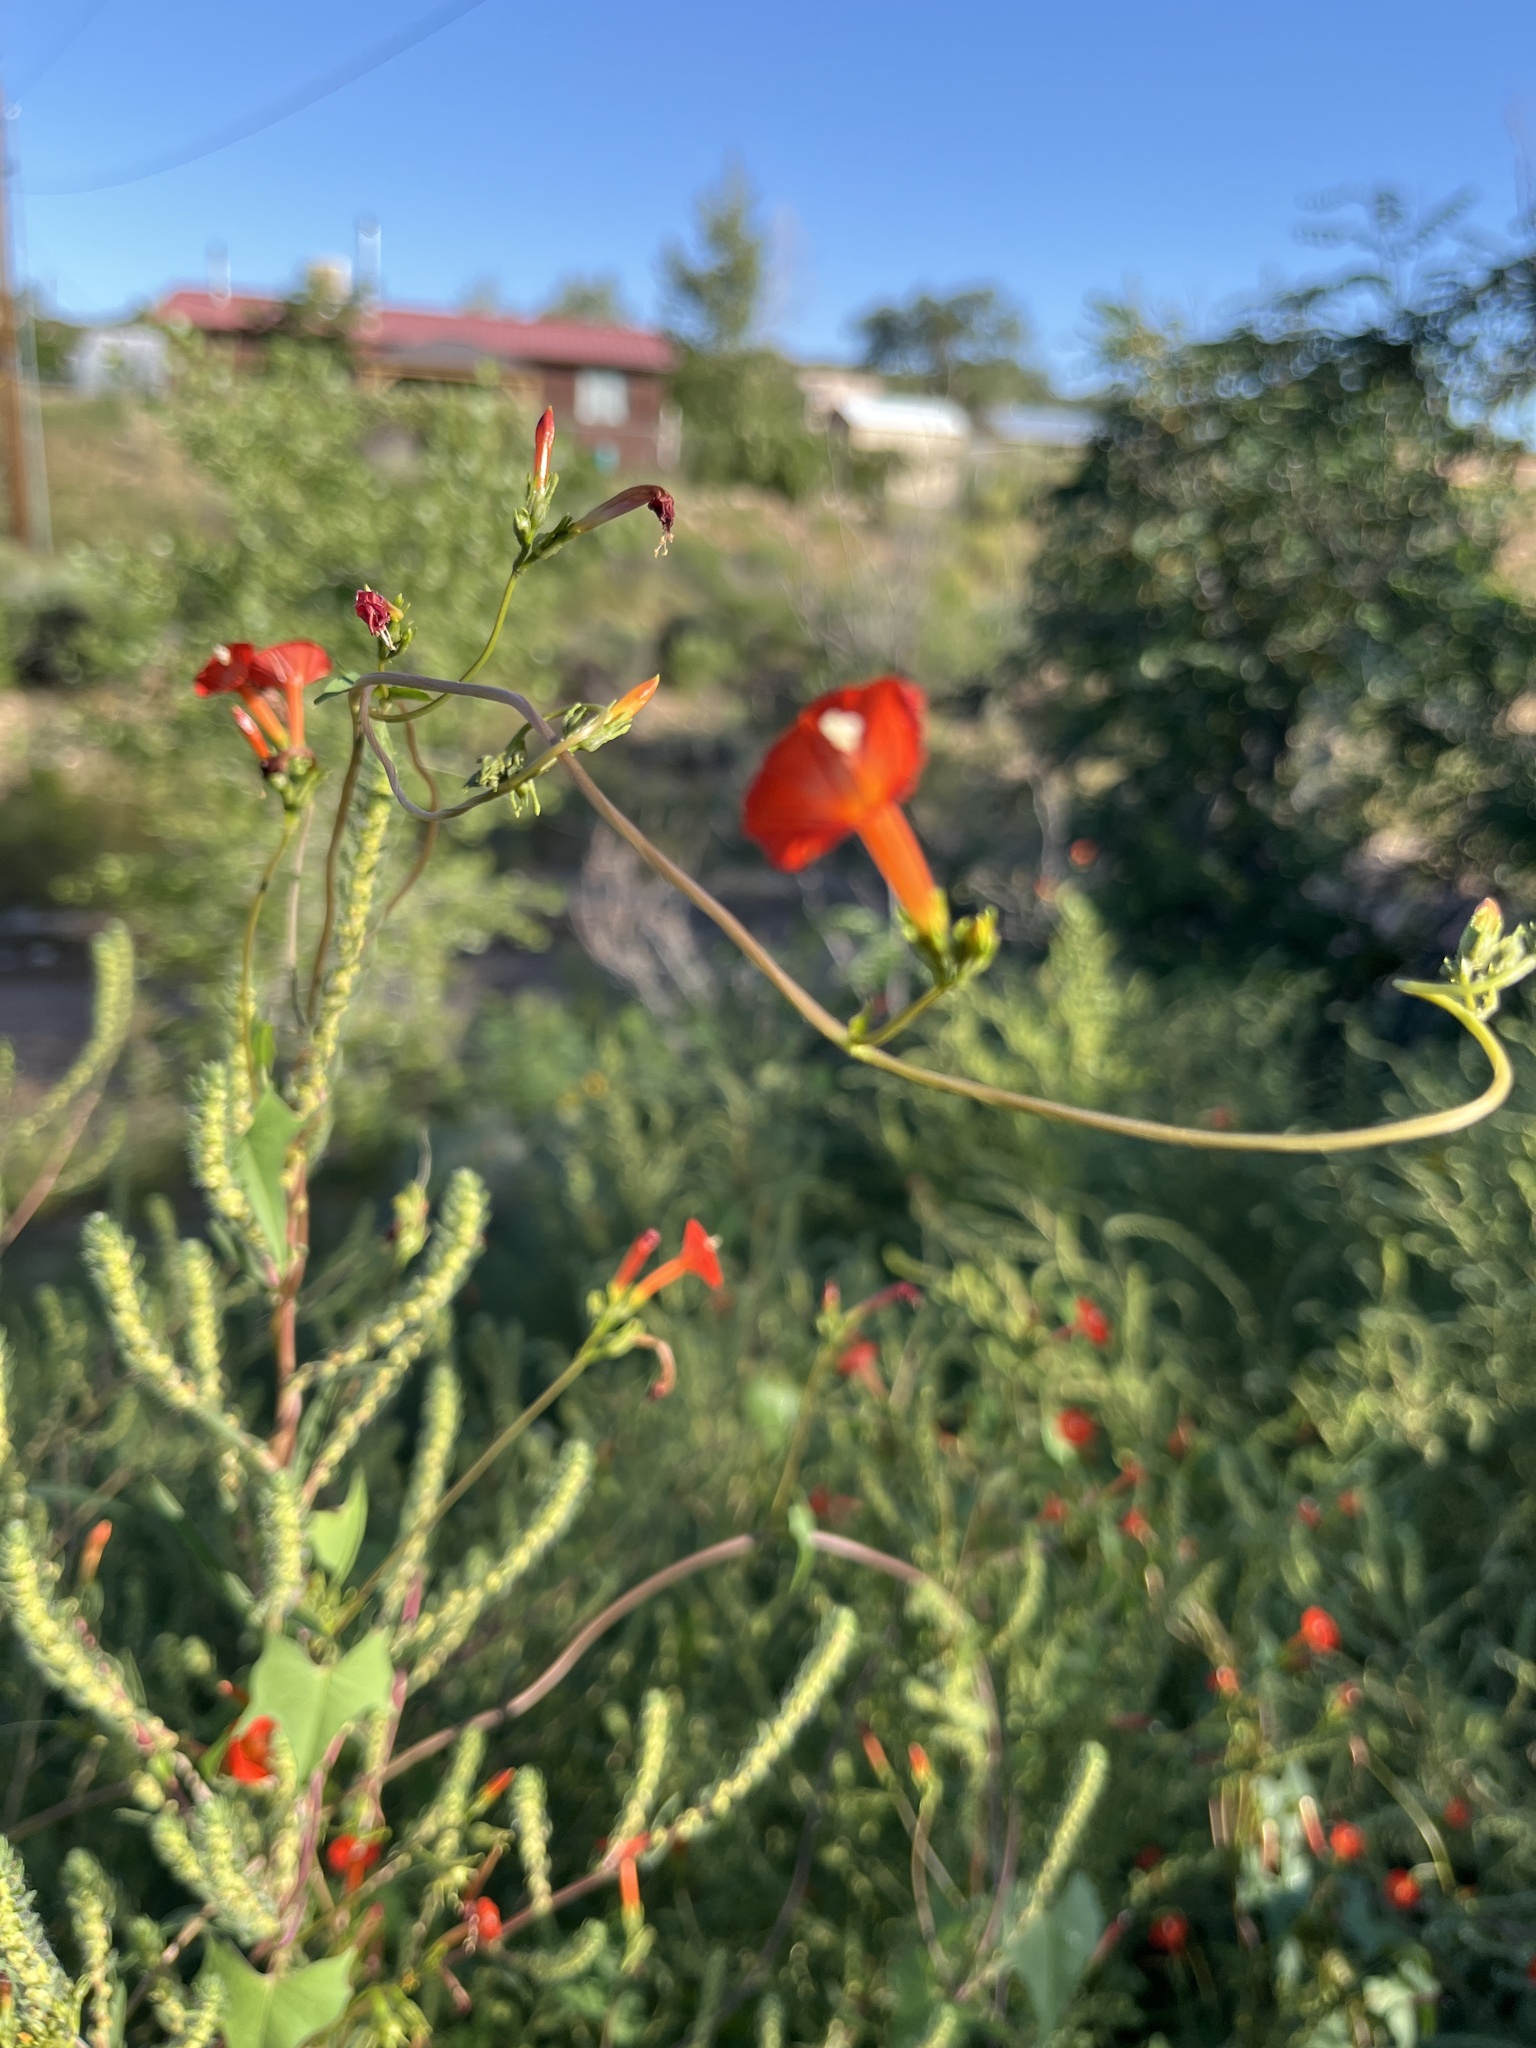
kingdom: Plantae
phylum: Tracheophyta
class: Magnoliopsida
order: Solanales
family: Convolvulaceae
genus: Ipomoea
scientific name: Ipomoea cristulata
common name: Trans-pecos morning-glory
